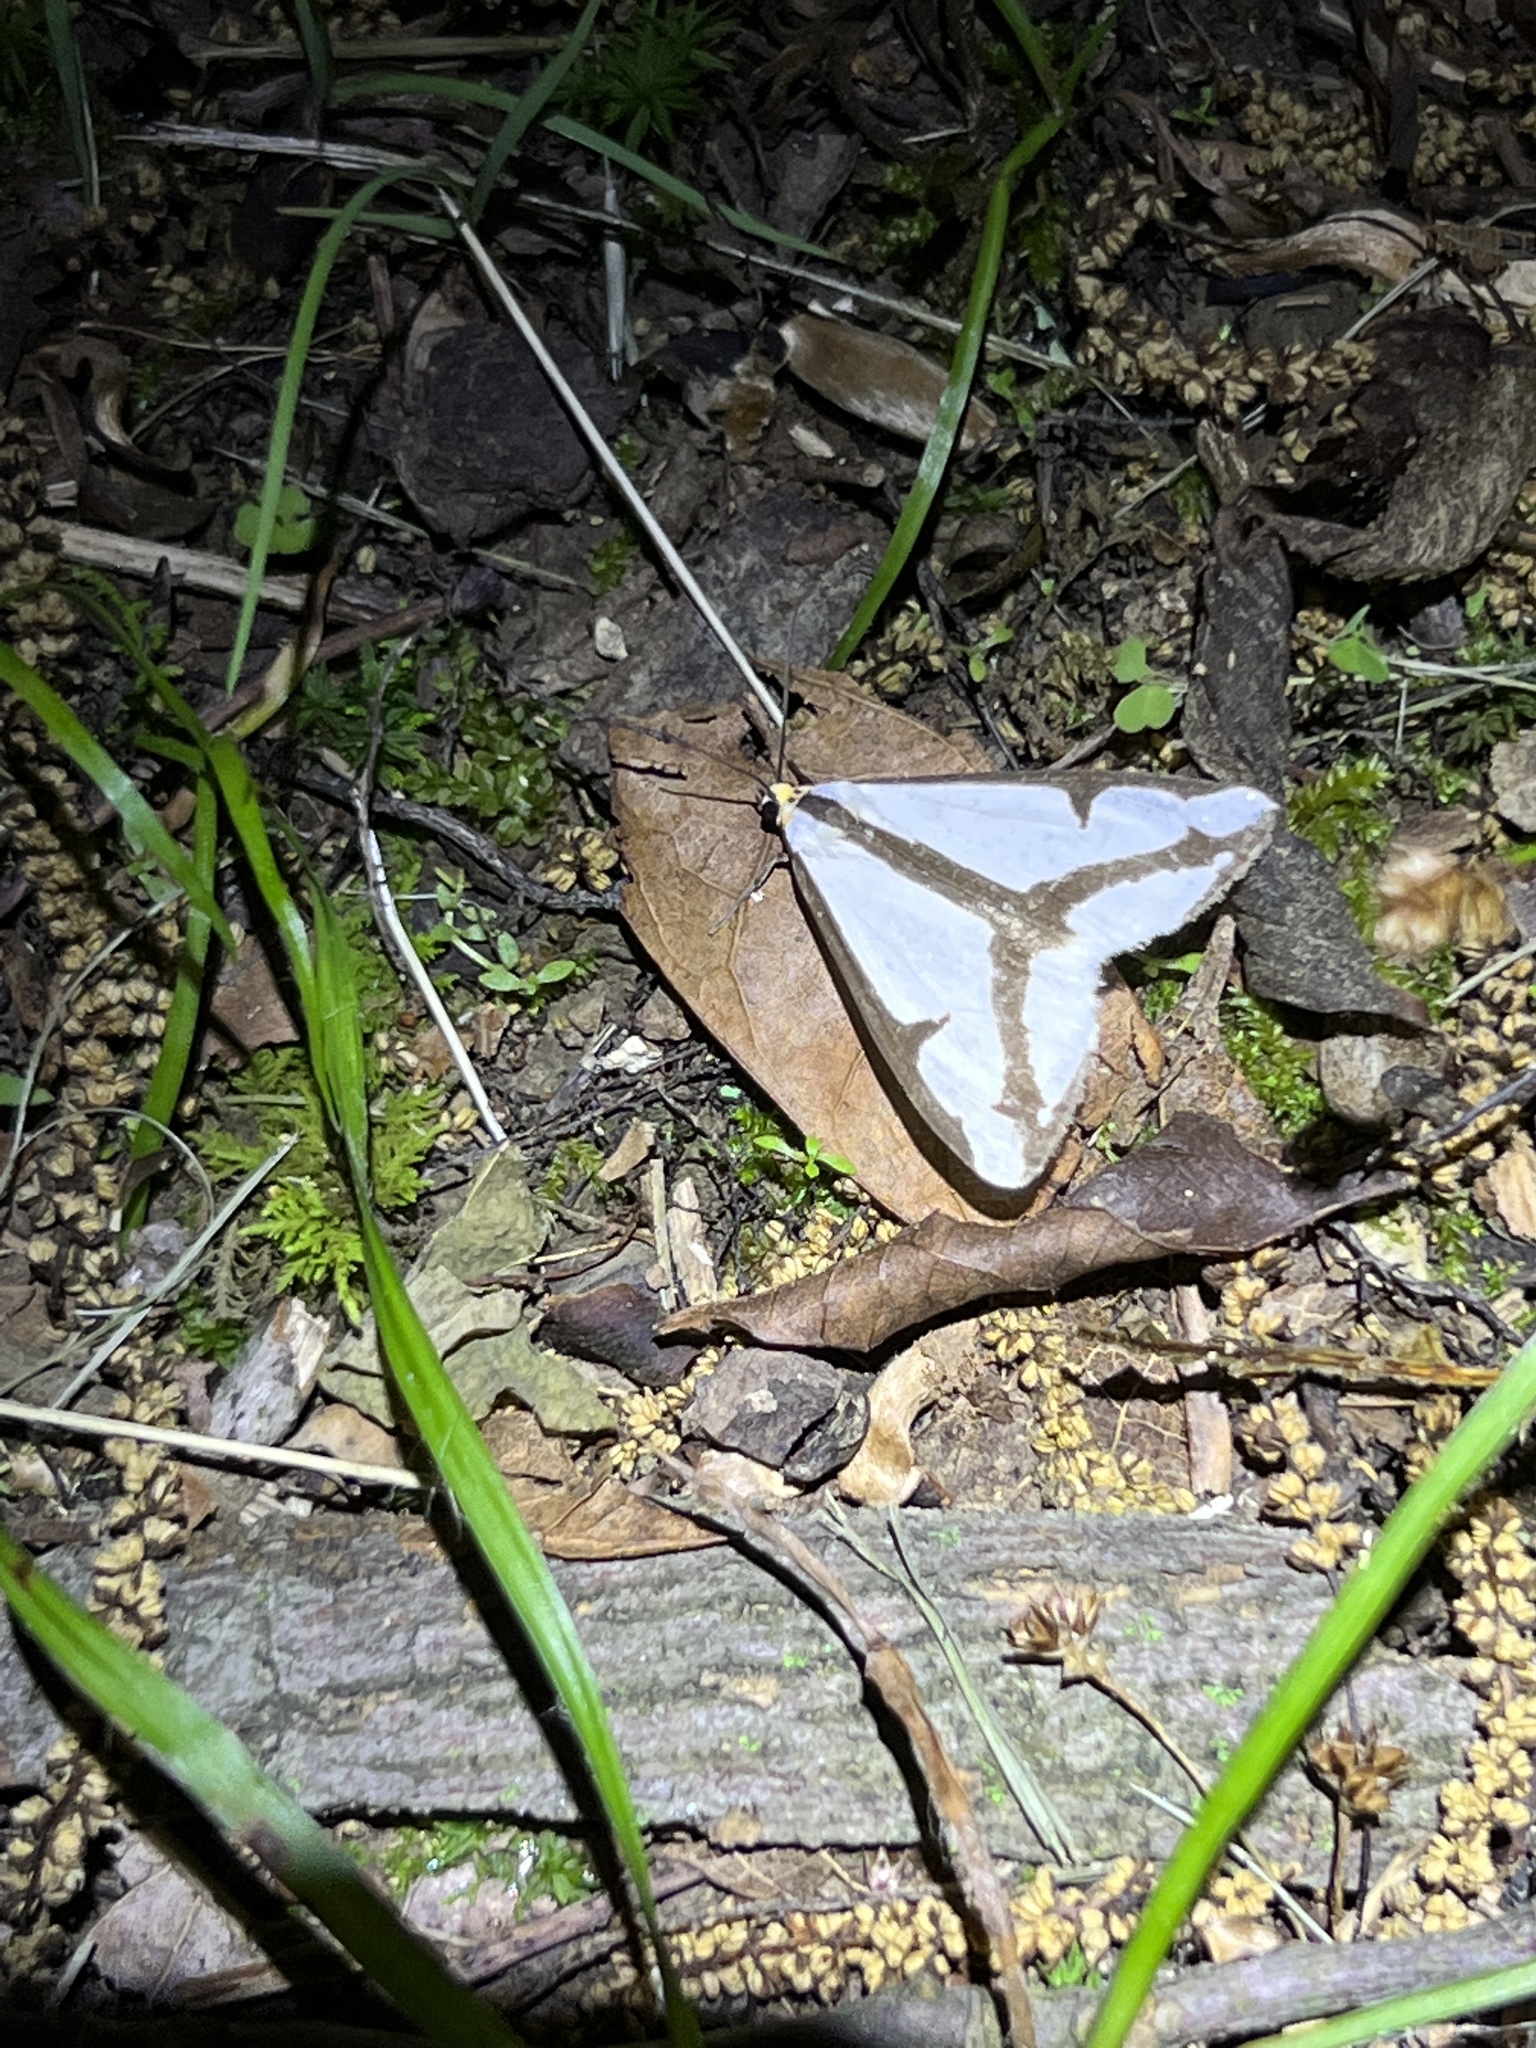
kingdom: Animalia
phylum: Arthropoda
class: Insecta
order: Lepidoptera
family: Erebidae
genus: Haploa
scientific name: Haploa lecontei
